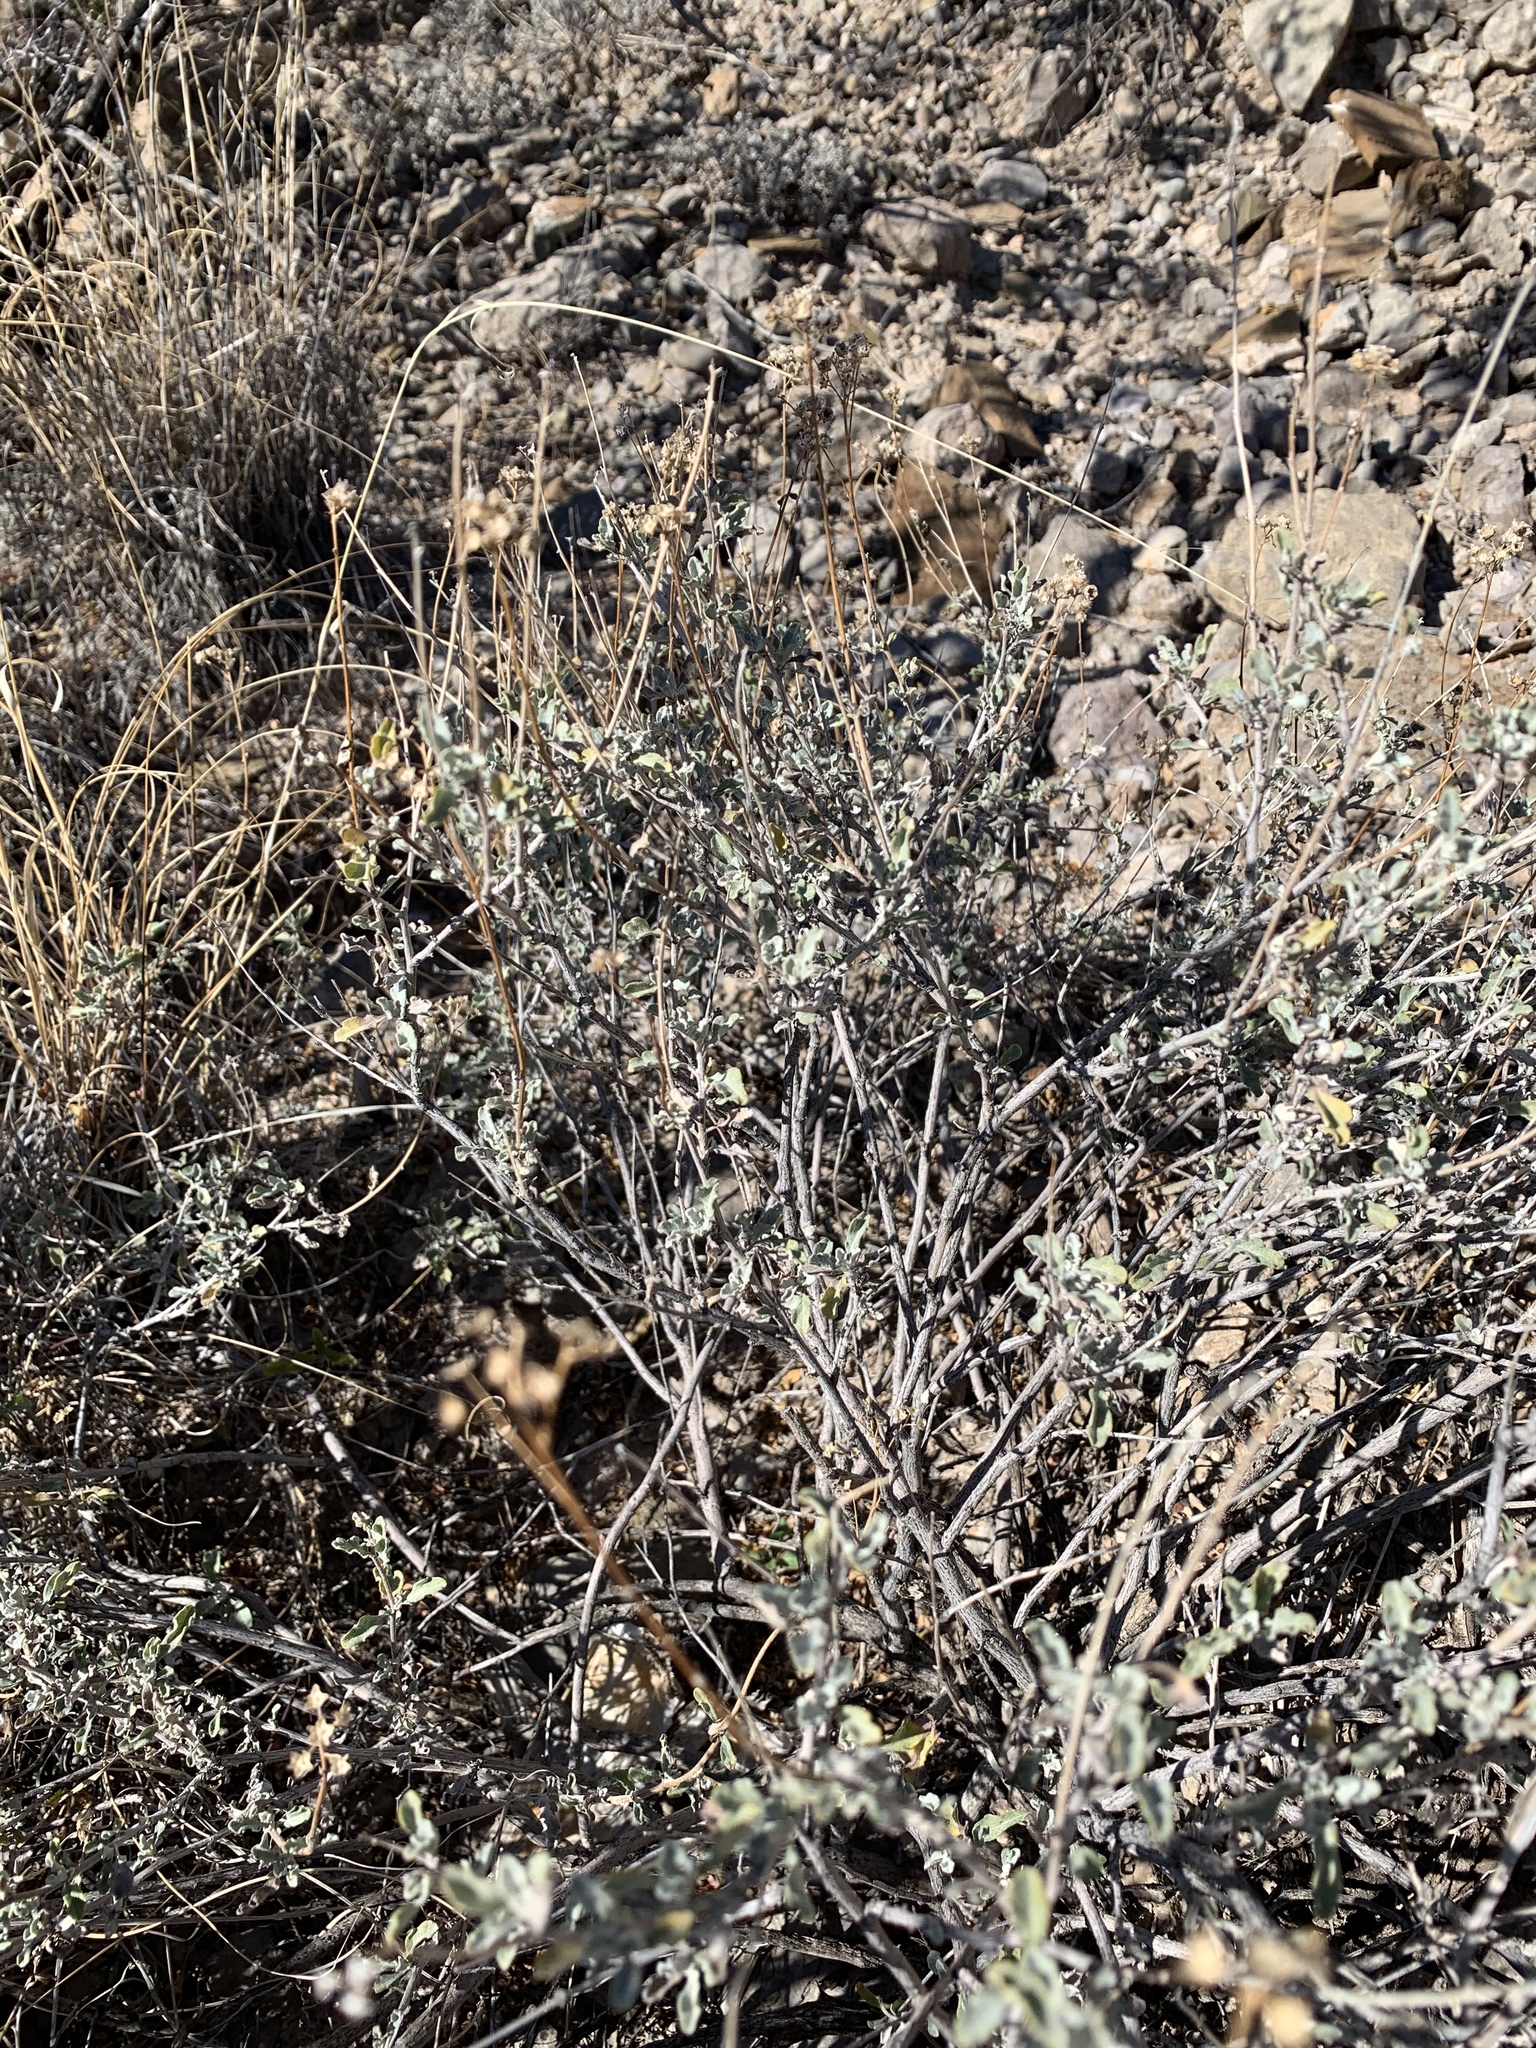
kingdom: Plantae
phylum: Tracheophyta
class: Magnoliopsida
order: Asterales
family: Asteraceae
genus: Parthenium
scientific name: Parthenium incanum
